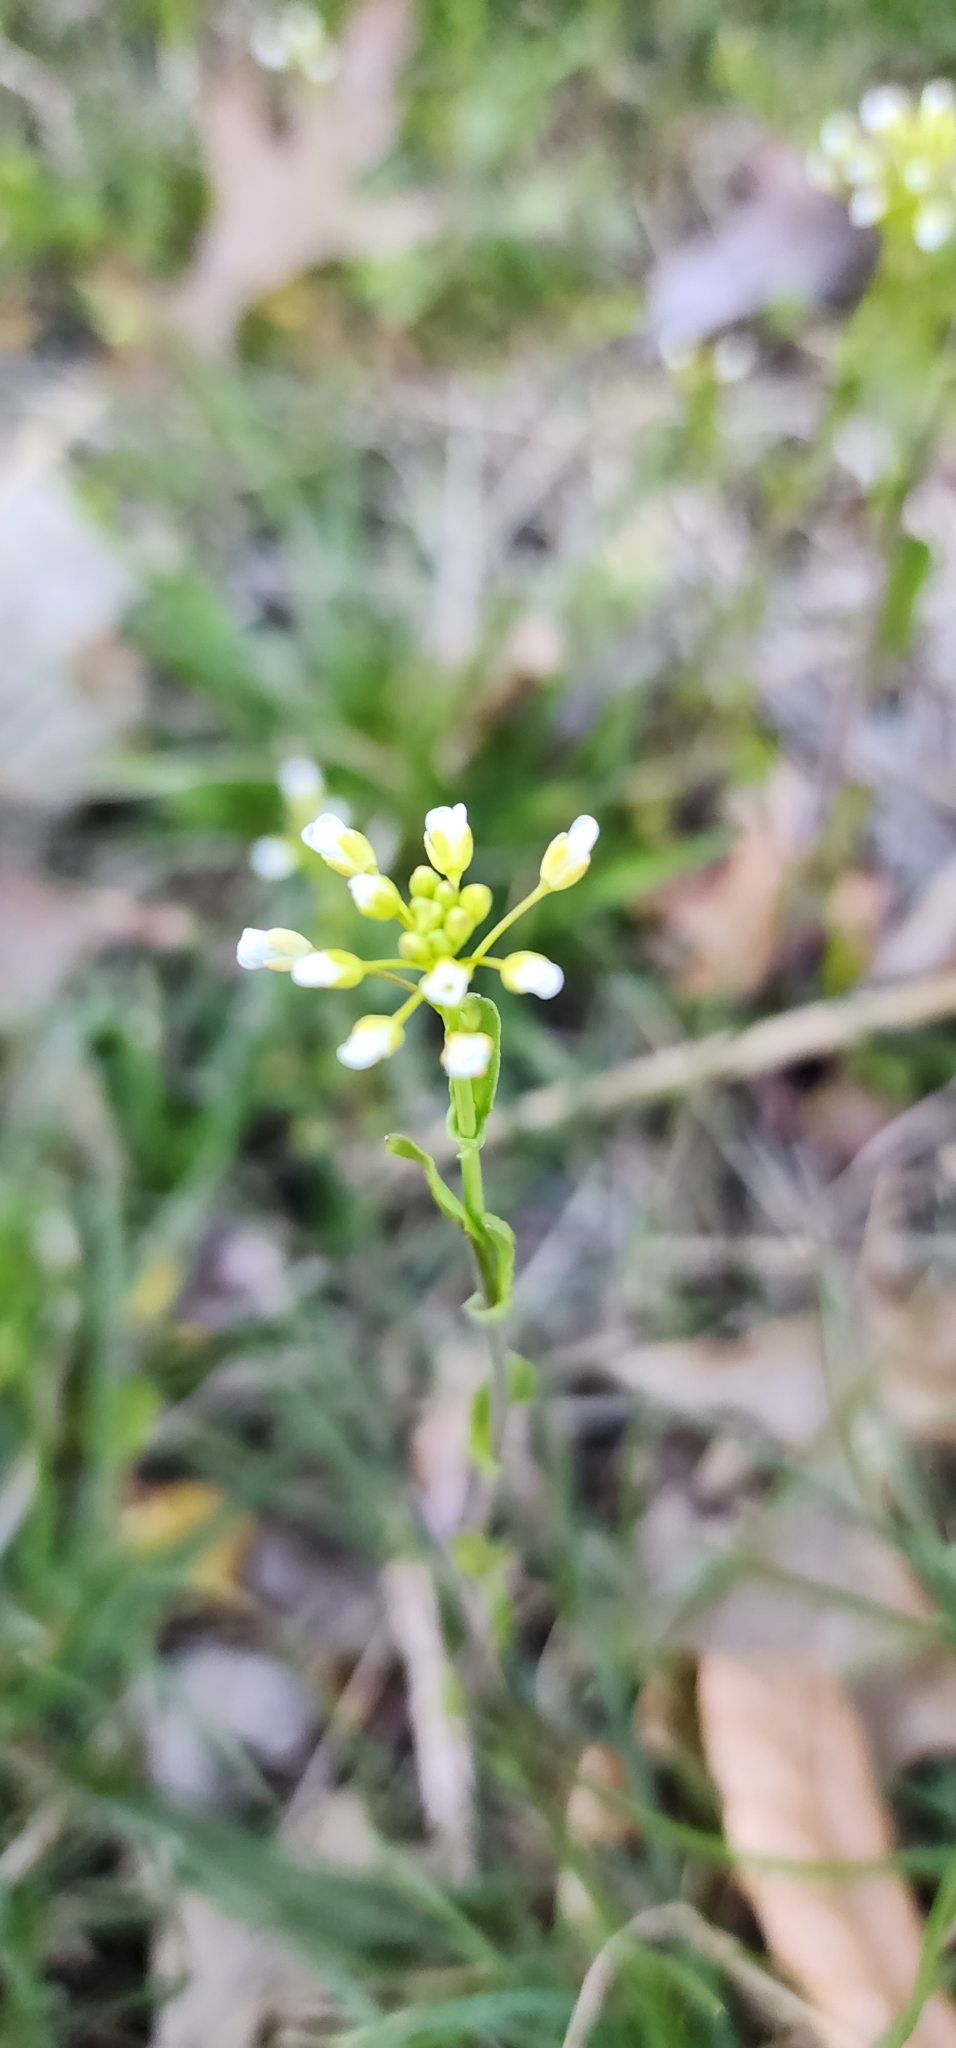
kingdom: Plantae
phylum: Tracheophyta
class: Magnoliopsida
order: Brassicales
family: Brassicaceae
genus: Mummenhoffia
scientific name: Mummenhoffia alliacea
